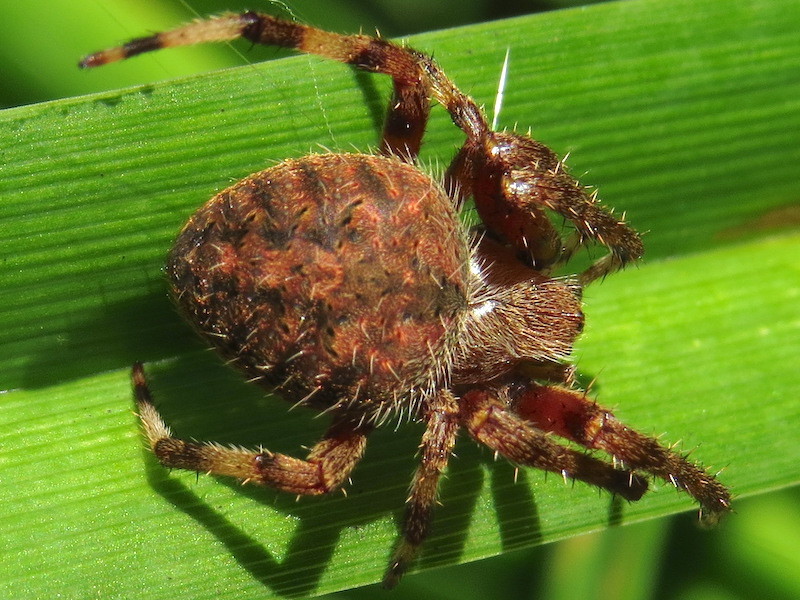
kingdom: Animalia
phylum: Arthropoda
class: Arachnida
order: Araneae
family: Araneidae
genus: Neoscona
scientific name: Neoscona crucifera
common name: Spotted orbweaver
